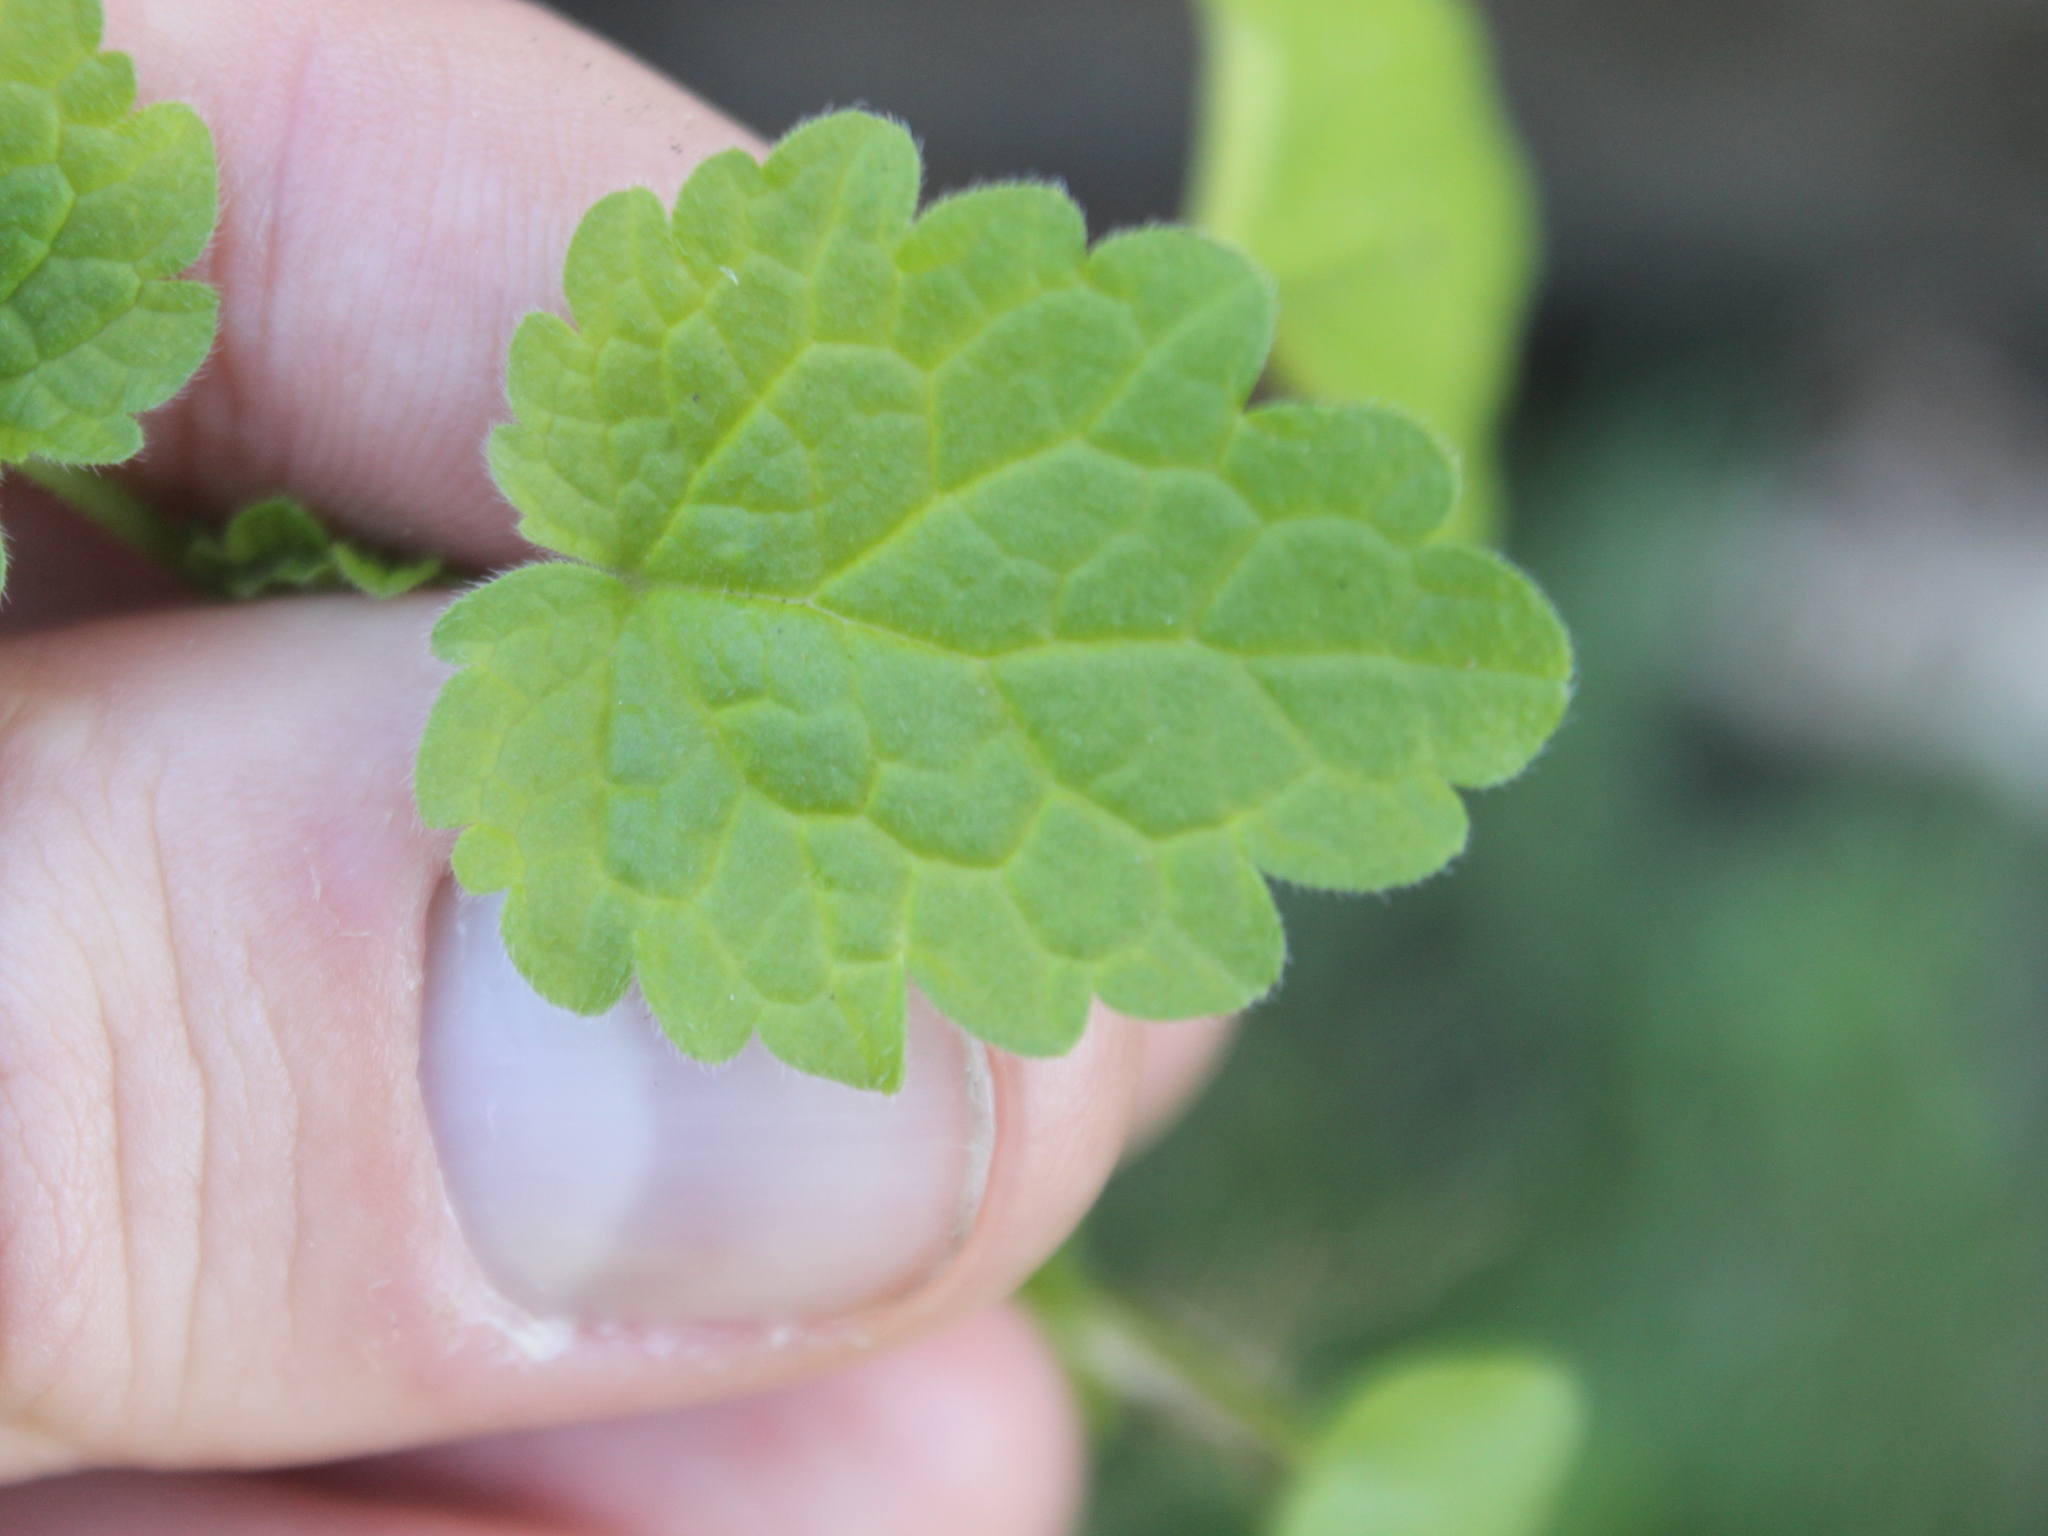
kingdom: Plantae
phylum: Tracheophyta
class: Magnoliopsida
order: Lamiales
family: Plantaginaceae
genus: Veronica
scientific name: Veronica javanica
